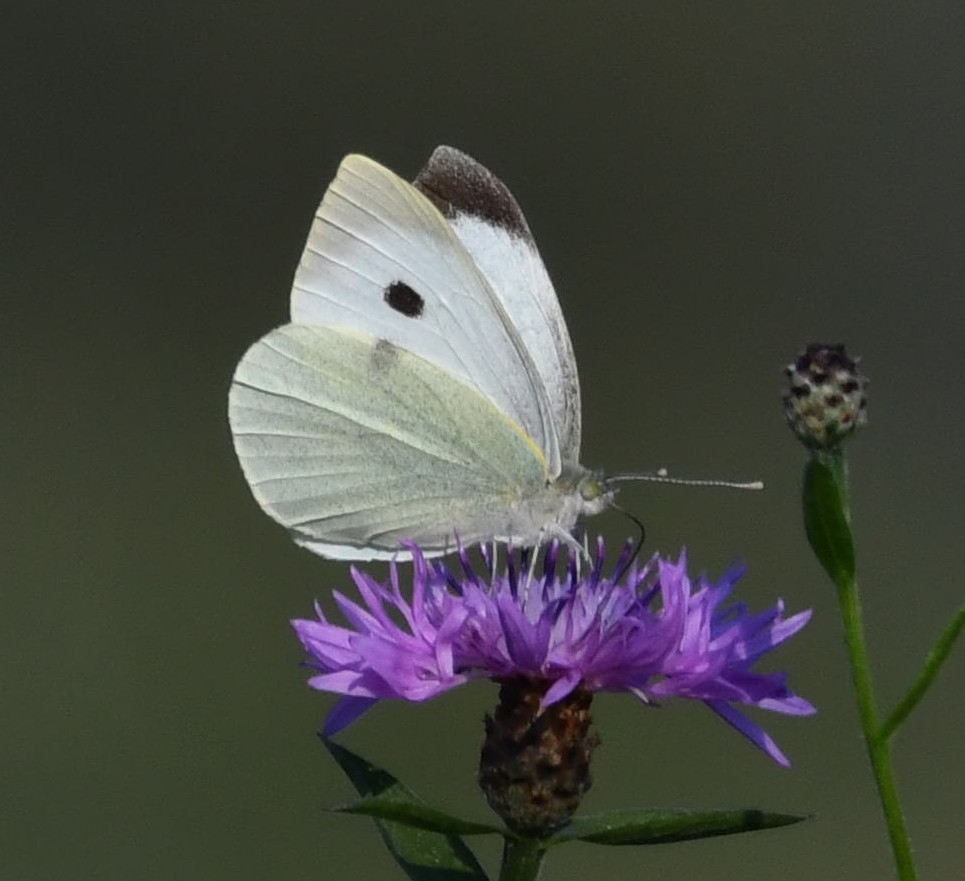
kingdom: Animalia
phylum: Arthropoda
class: Insecta
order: Lepidoptera
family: Pieridae
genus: Pieris
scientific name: Pieris brassicae
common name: Large white
